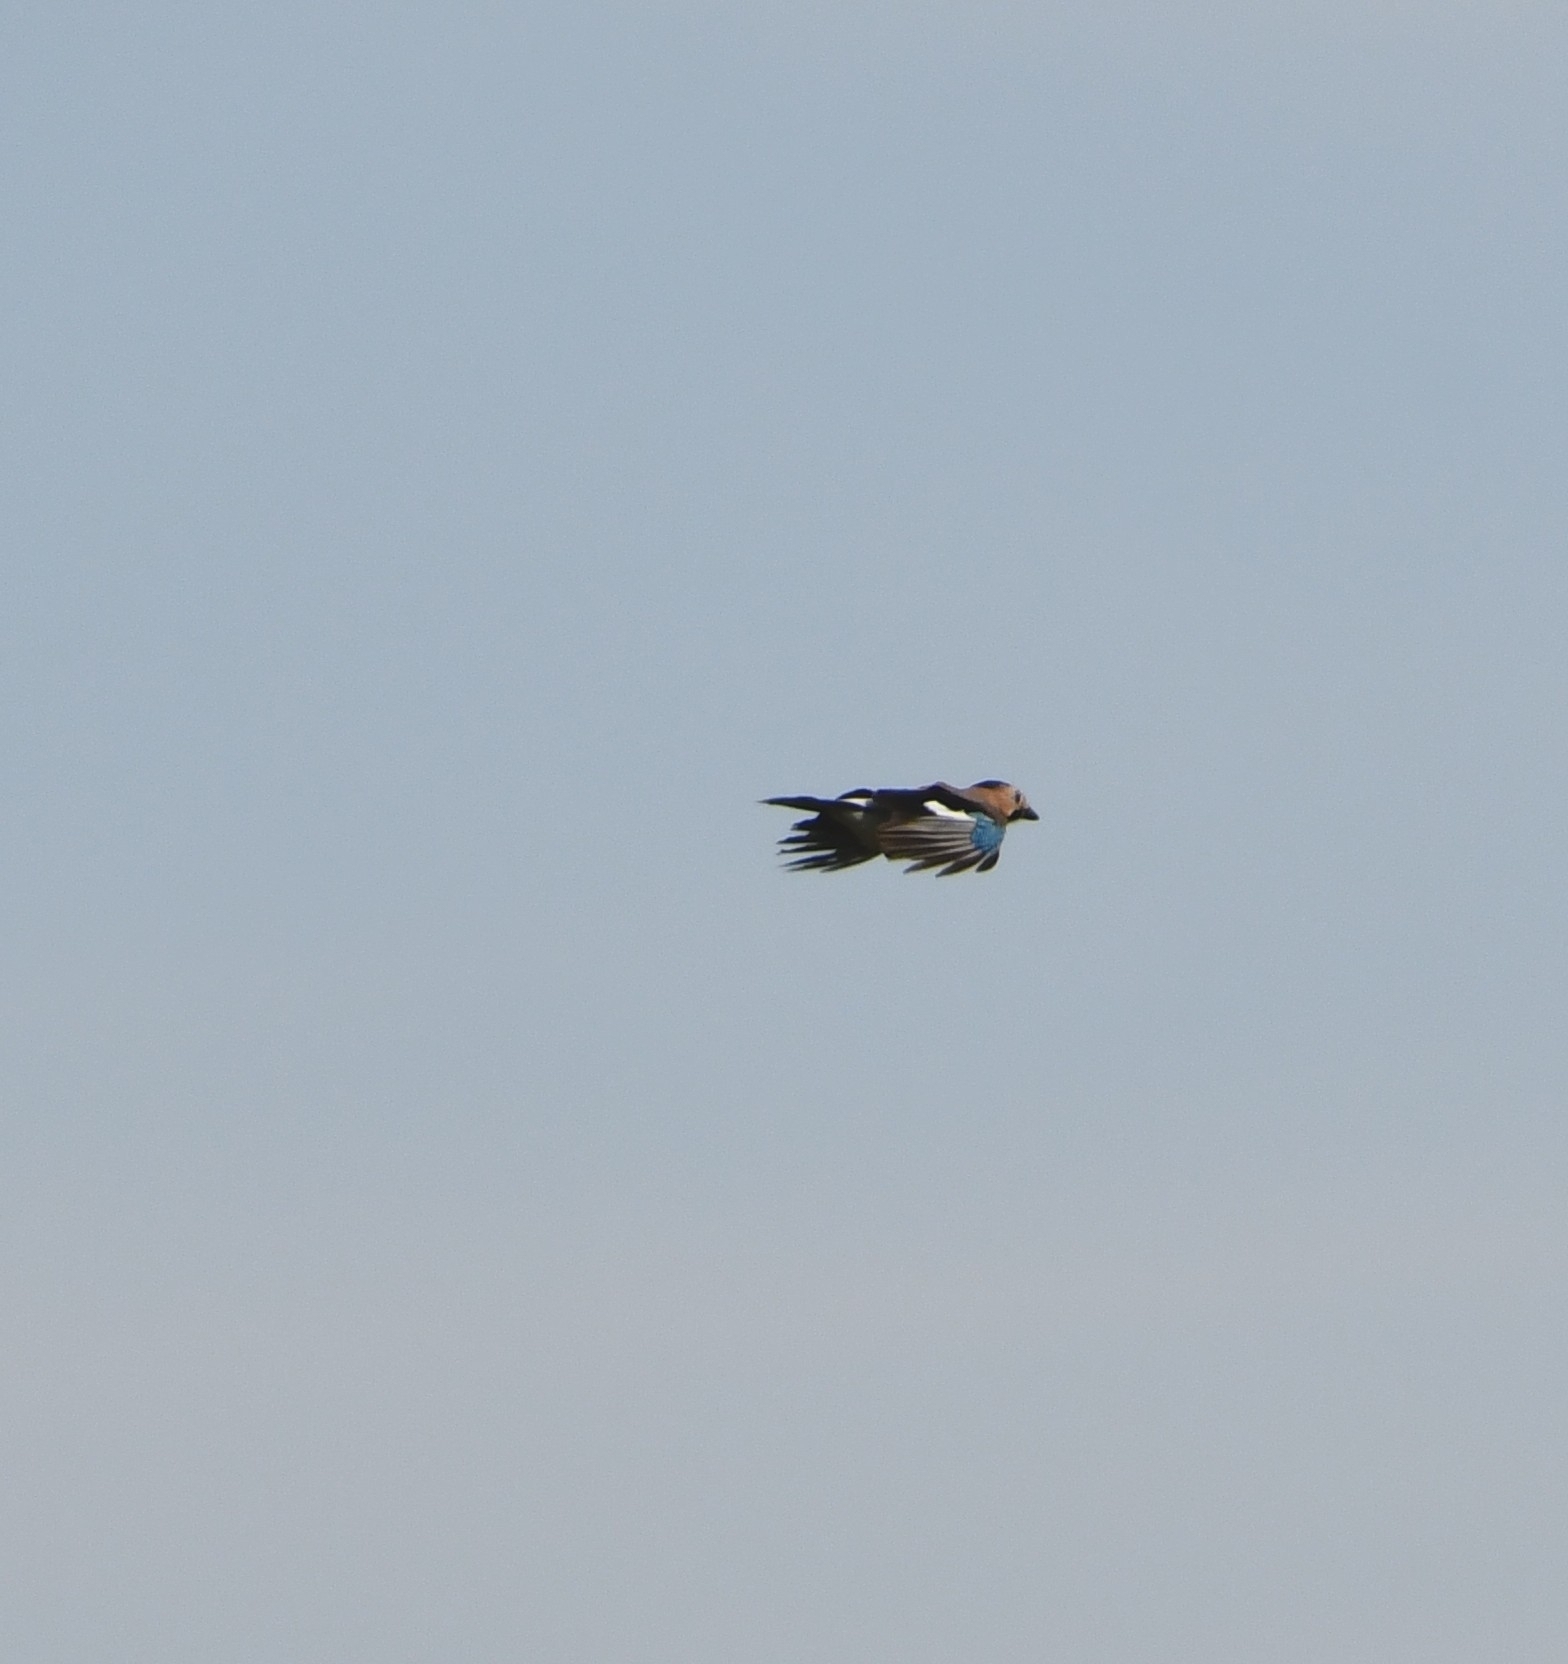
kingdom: Animalia
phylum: Chordata
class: Aves
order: Passeriformes
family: Corvidae
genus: Garrulus
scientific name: Garrulus glandarius
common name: Eurasian jay
